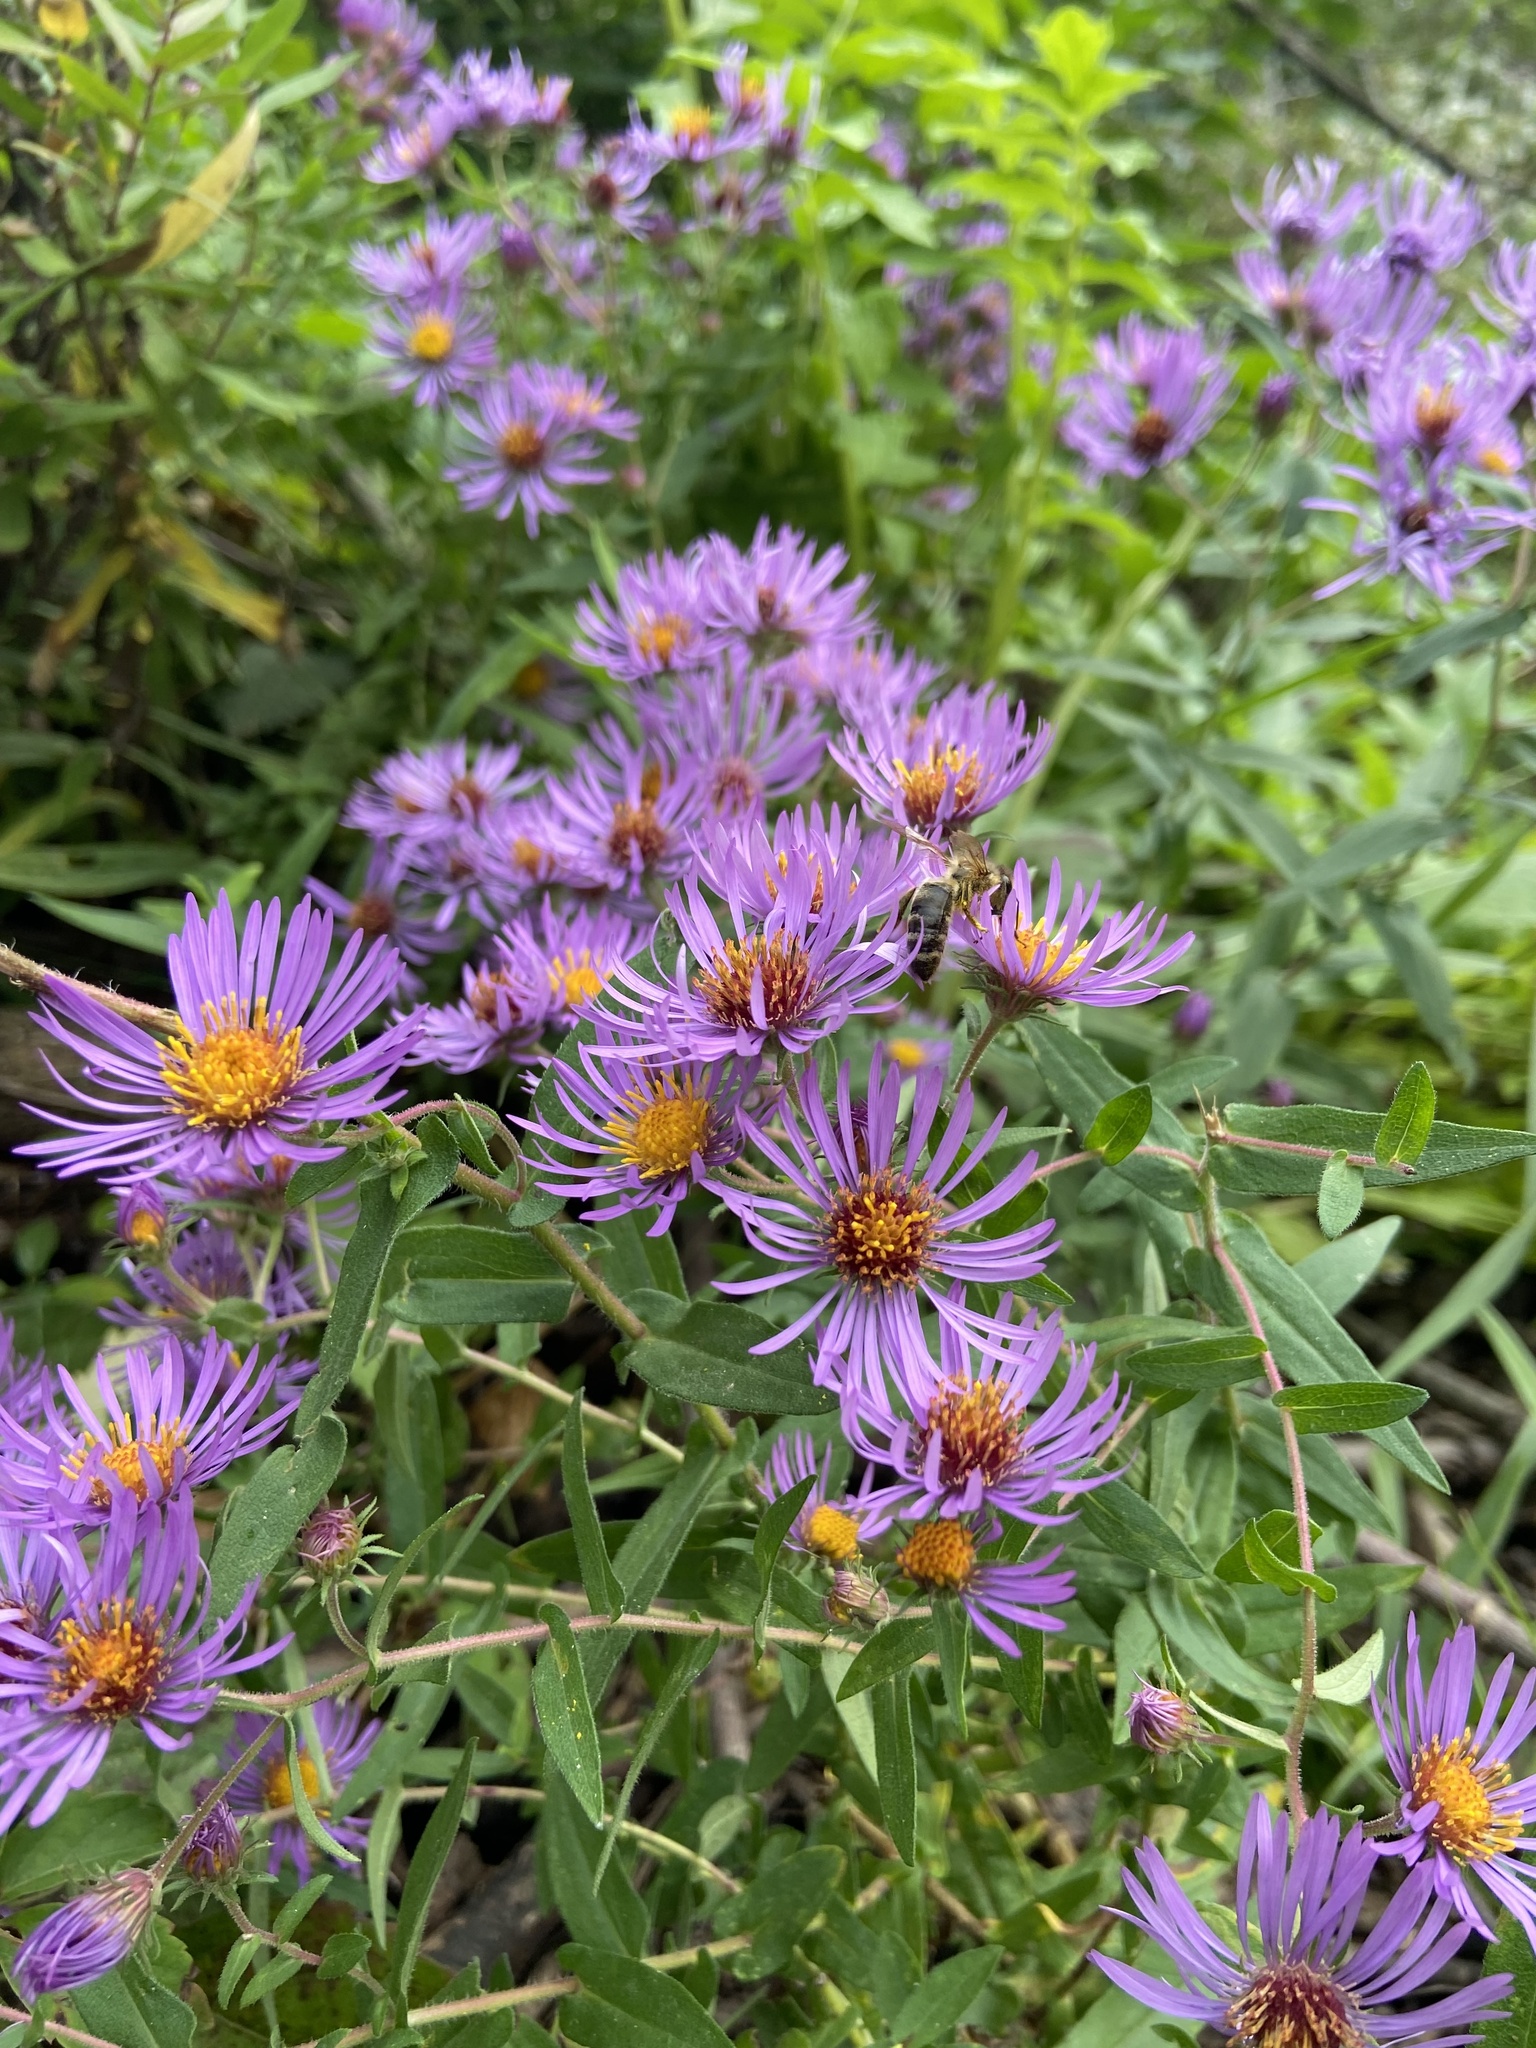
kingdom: Plantae
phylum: Tracheophyta
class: Magnoliopsida
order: Asterales
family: Asteraceae
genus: Symphyotrichum
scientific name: Symphyotrichum novae-angliae
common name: Michaelmas daisy
